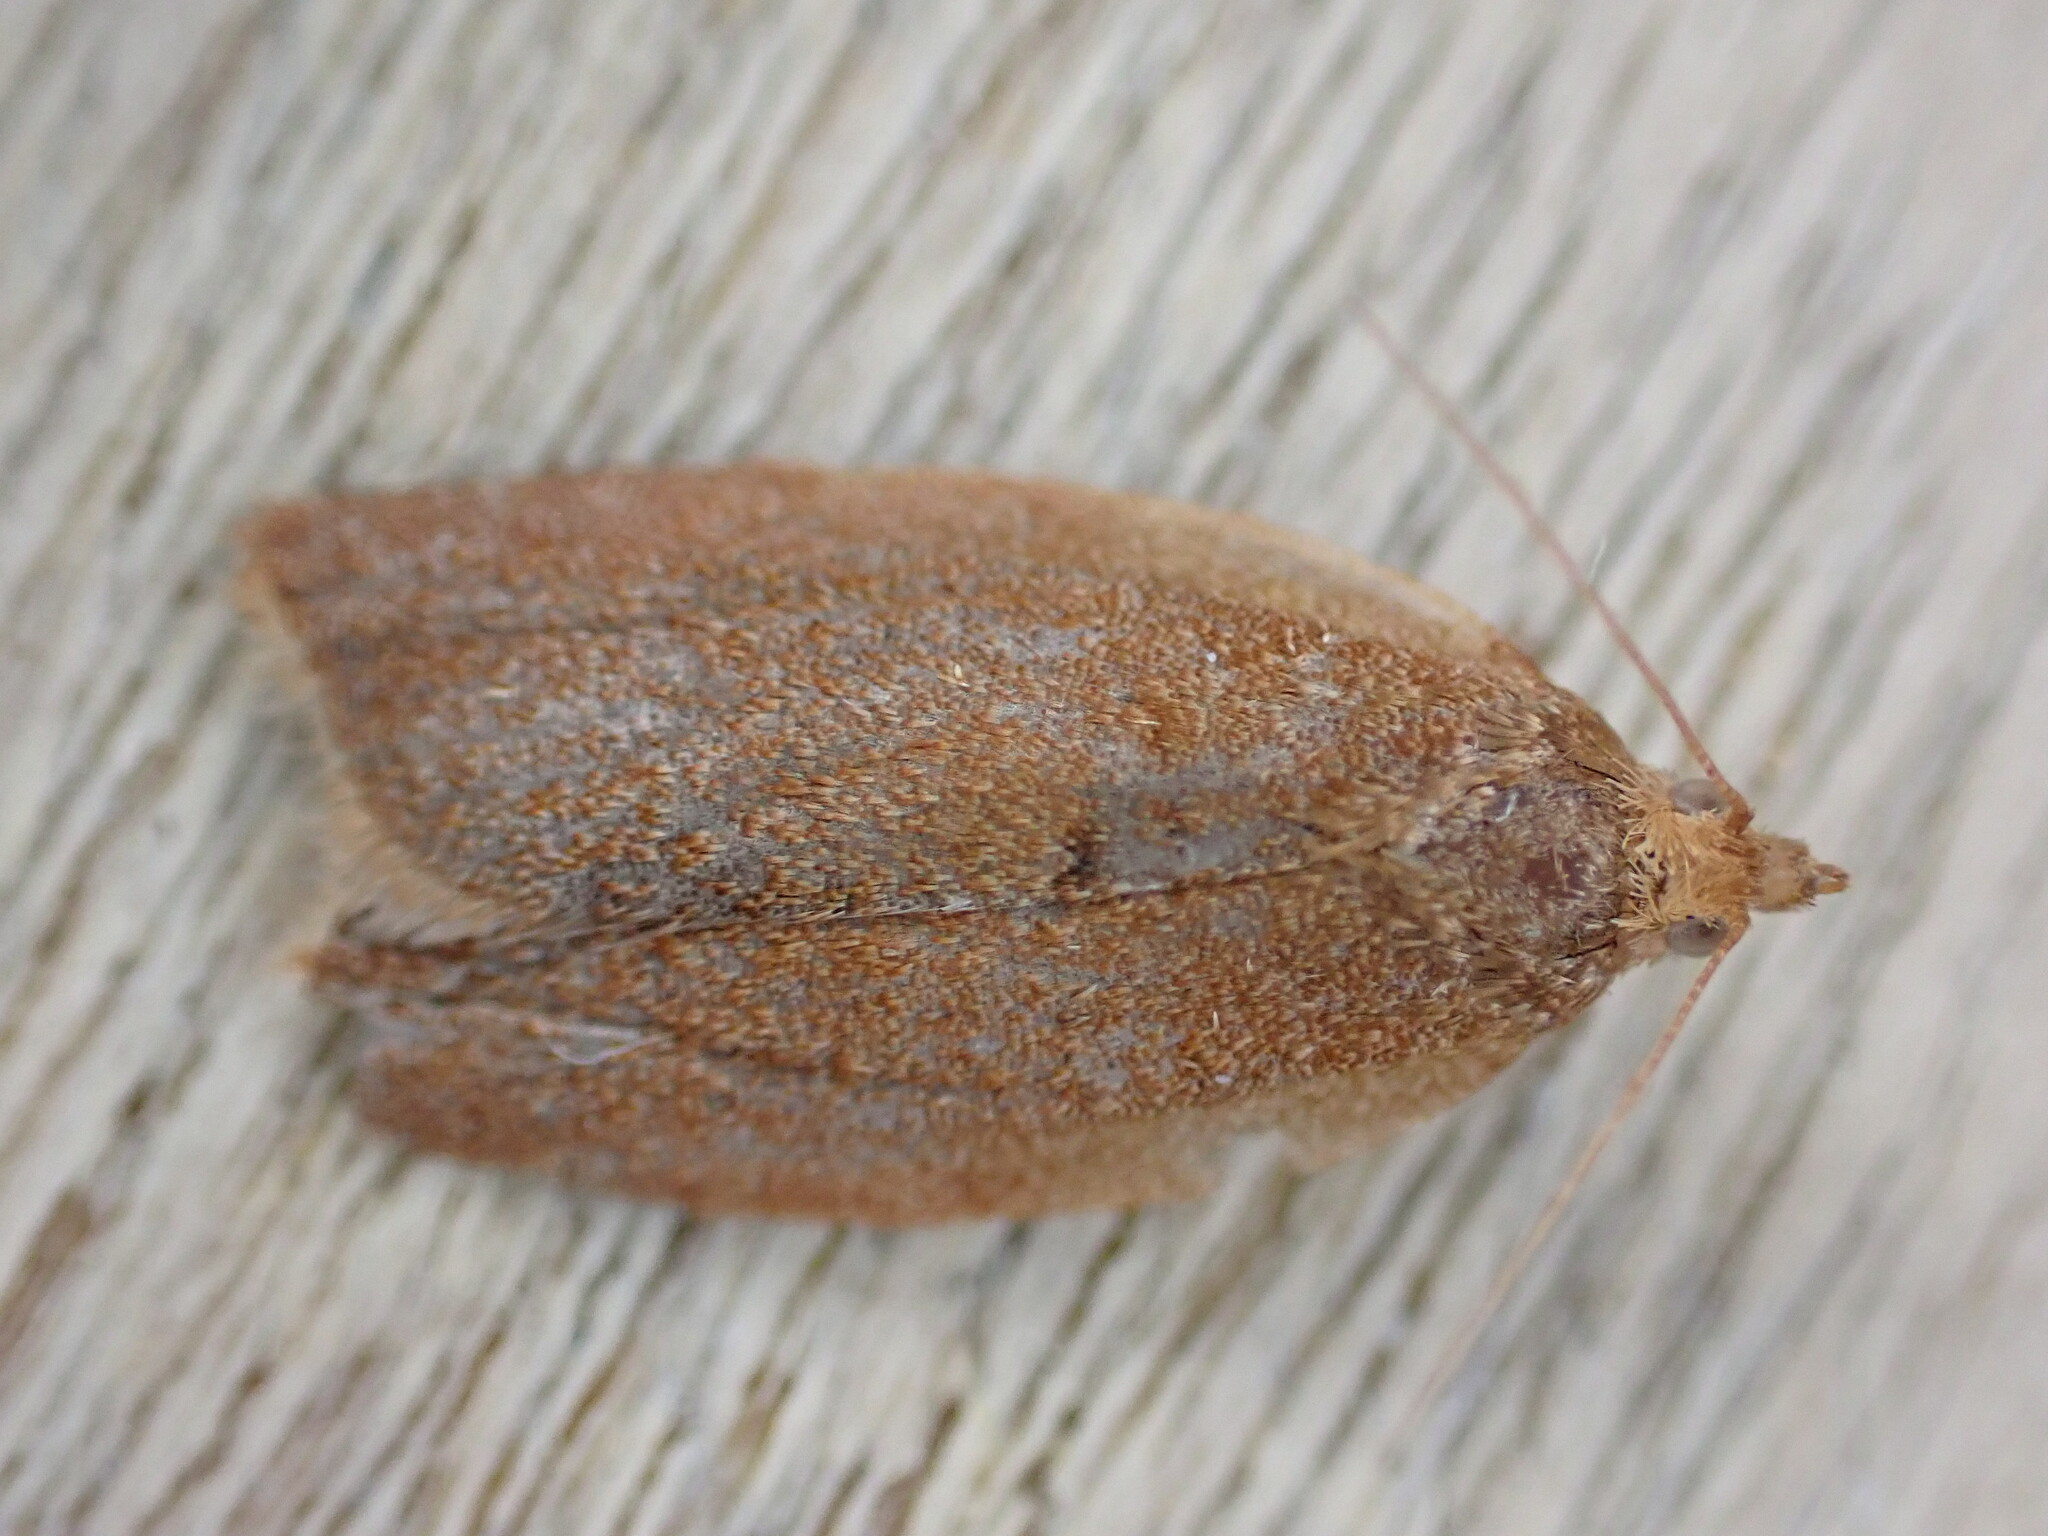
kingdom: Animalia
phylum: Arthropoda
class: Insecta
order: Lepidoptera
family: Tortricidae
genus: Clepsis
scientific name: Clepsis consimilana
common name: Privet tortrix
